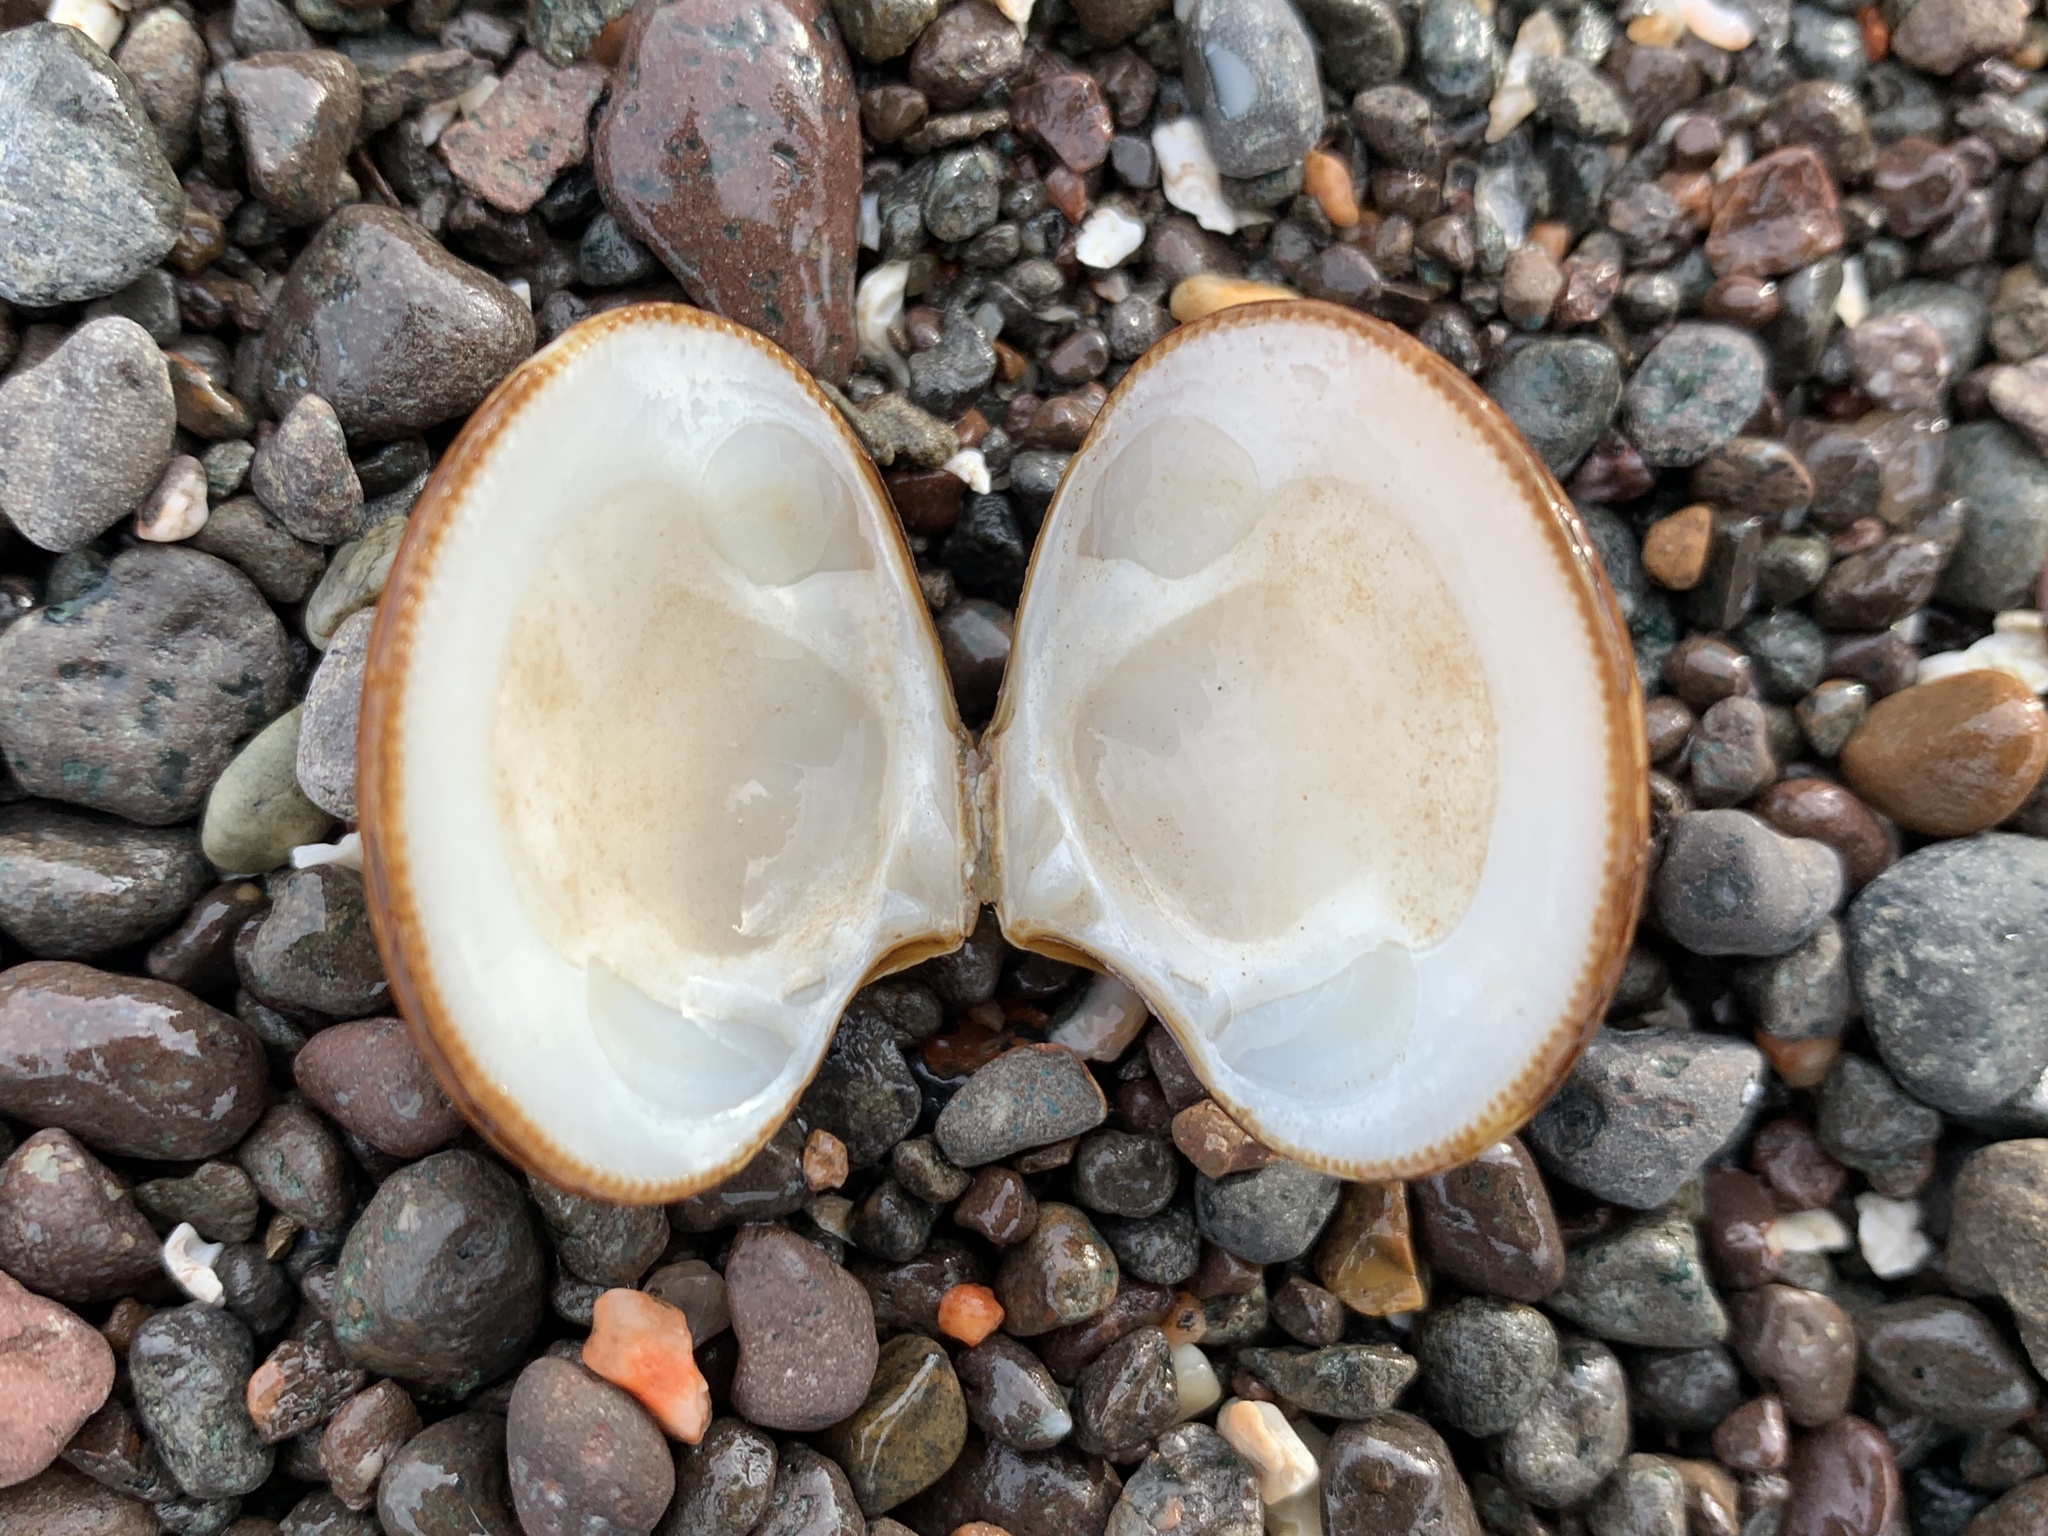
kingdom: Animalia
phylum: Mollusca
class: Bivalvia
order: Carditida
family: Astartidae
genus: Astarte
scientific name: Astarte undata
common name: Wavy astarte
